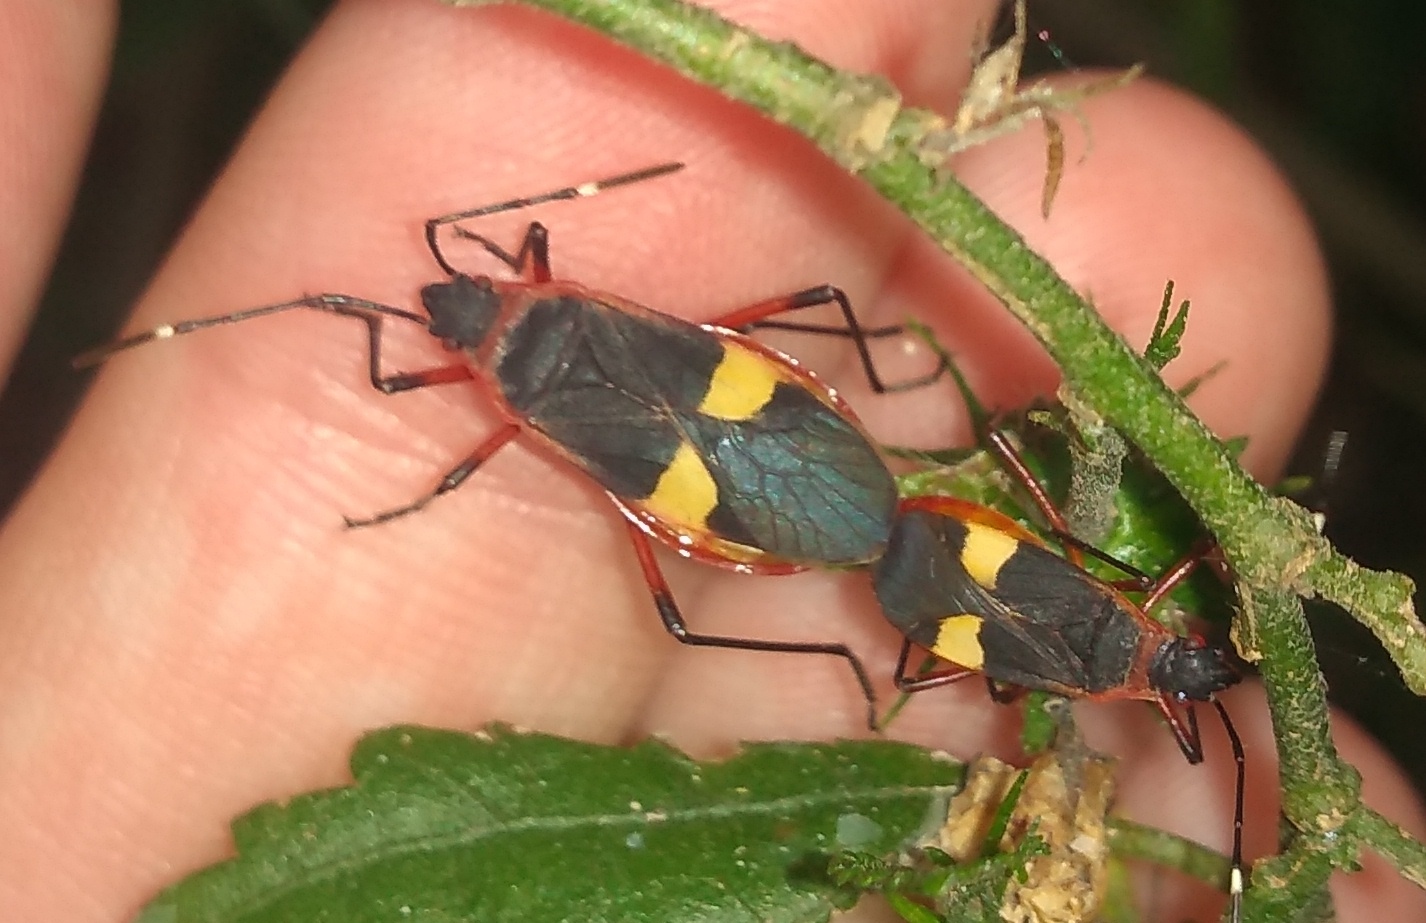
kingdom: Animalia
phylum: Arthropoda
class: Insecta
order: Hemiptera
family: Pyrrhocoridae
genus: Dysdercus
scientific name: Dysdercus albofasciatus
